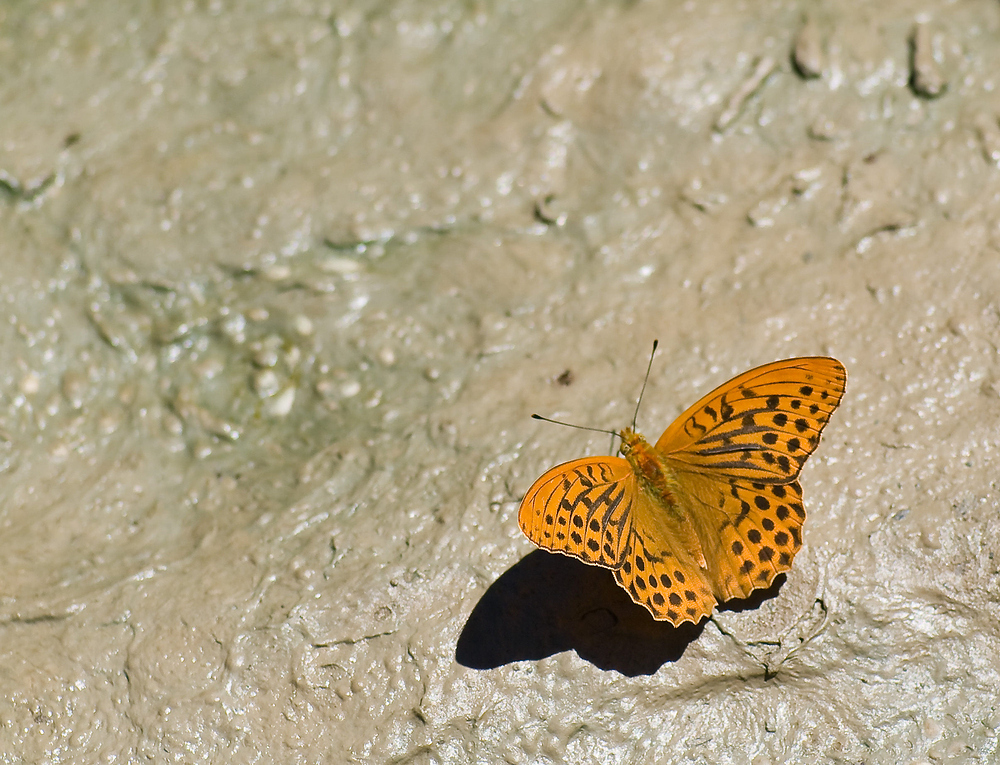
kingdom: Animalia
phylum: Arthropoda
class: Insecta
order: Lepidoptera
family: Nymphalidae
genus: Argynnis
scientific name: Argynnis paphia
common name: Silver-washed fritillary
